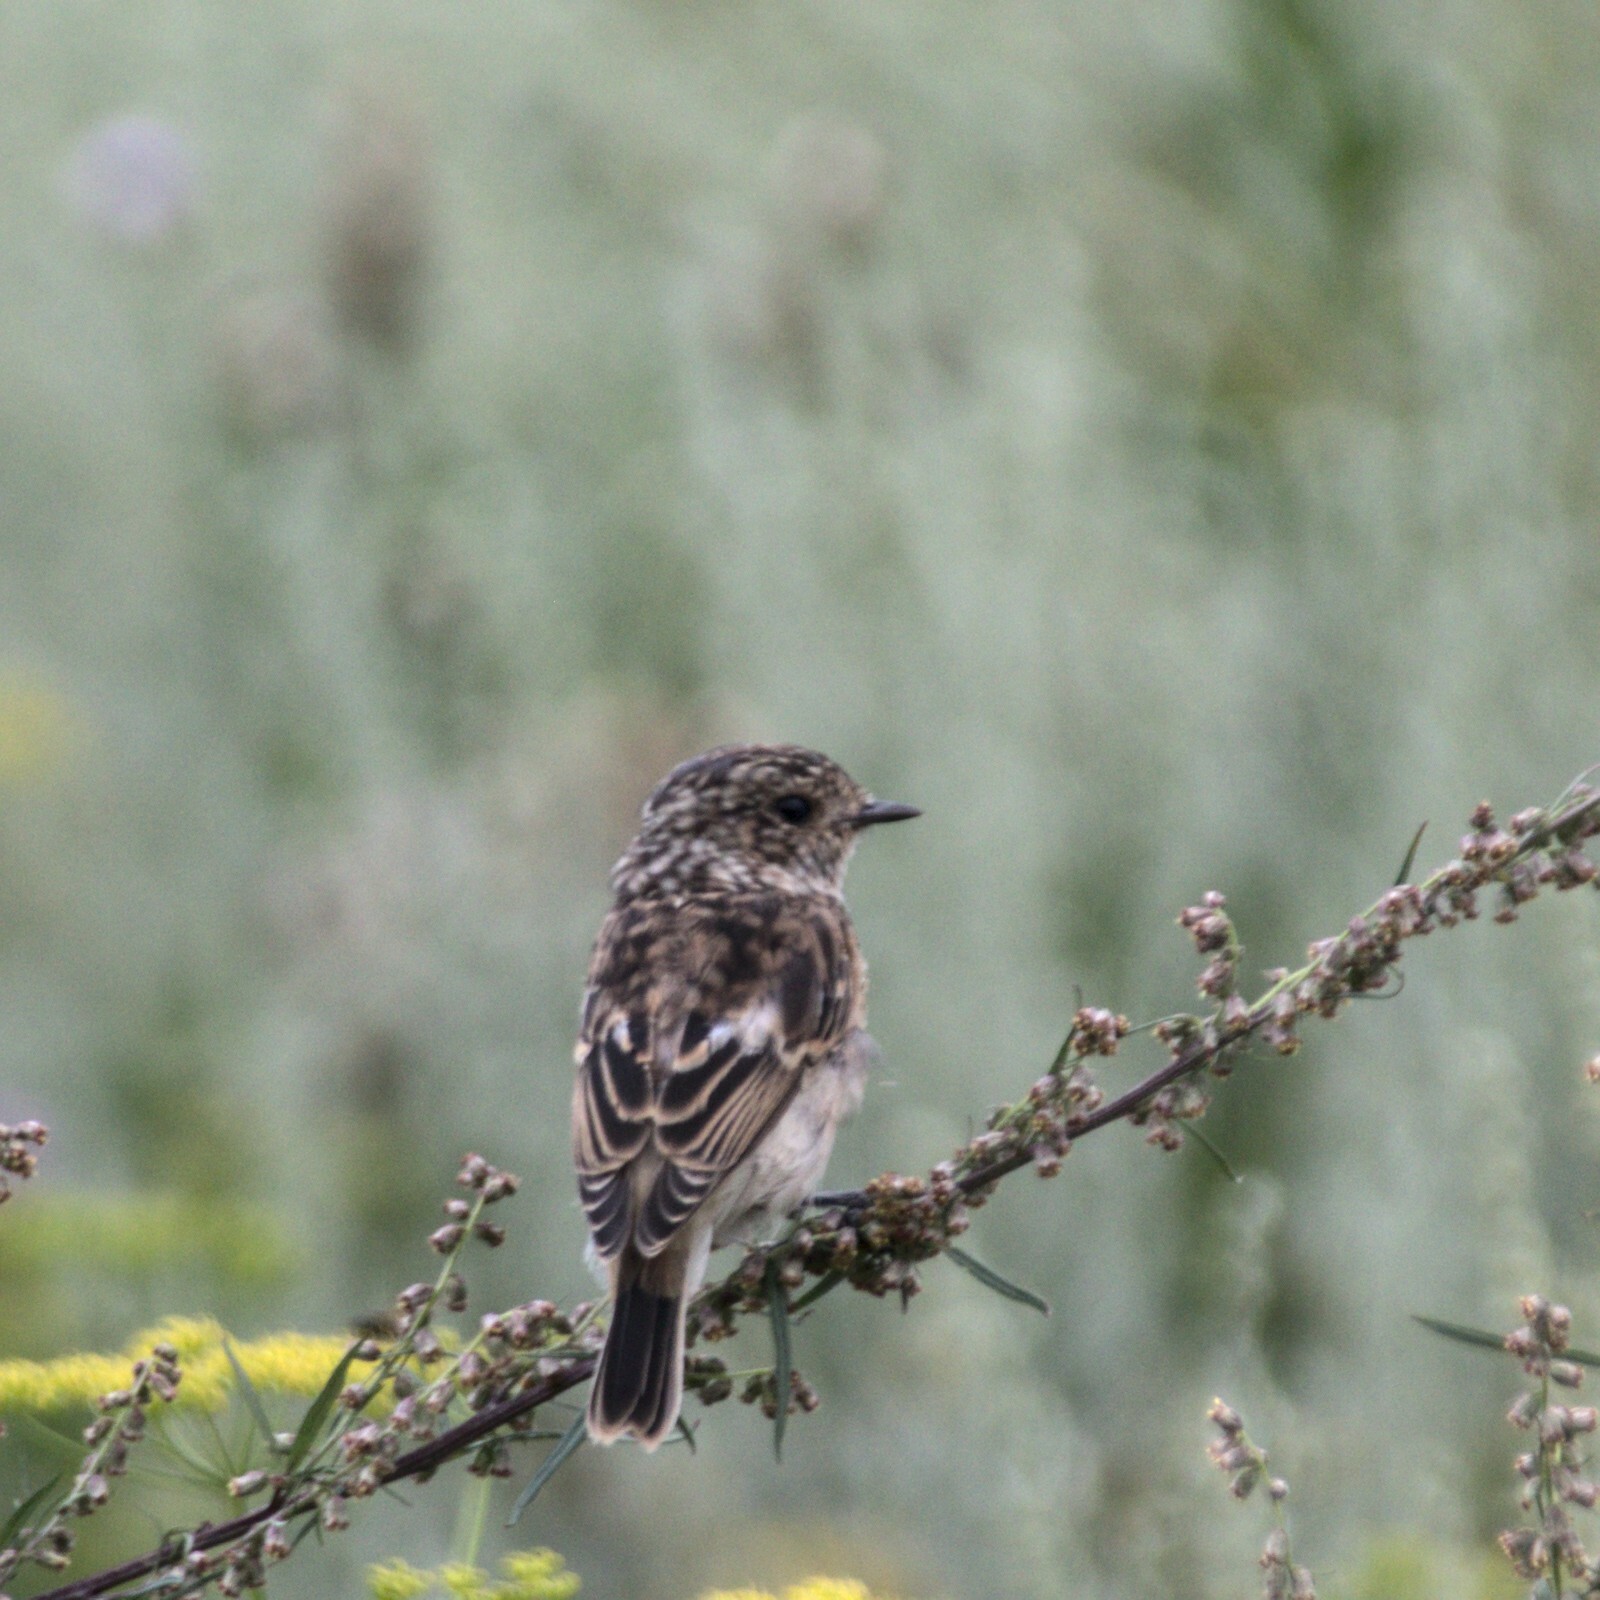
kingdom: Animalia
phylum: Chordata
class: Aves
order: Passeriformes
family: Muscicapidae
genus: Saxicola
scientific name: Saxicola maurus
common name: Siberian stonechat
